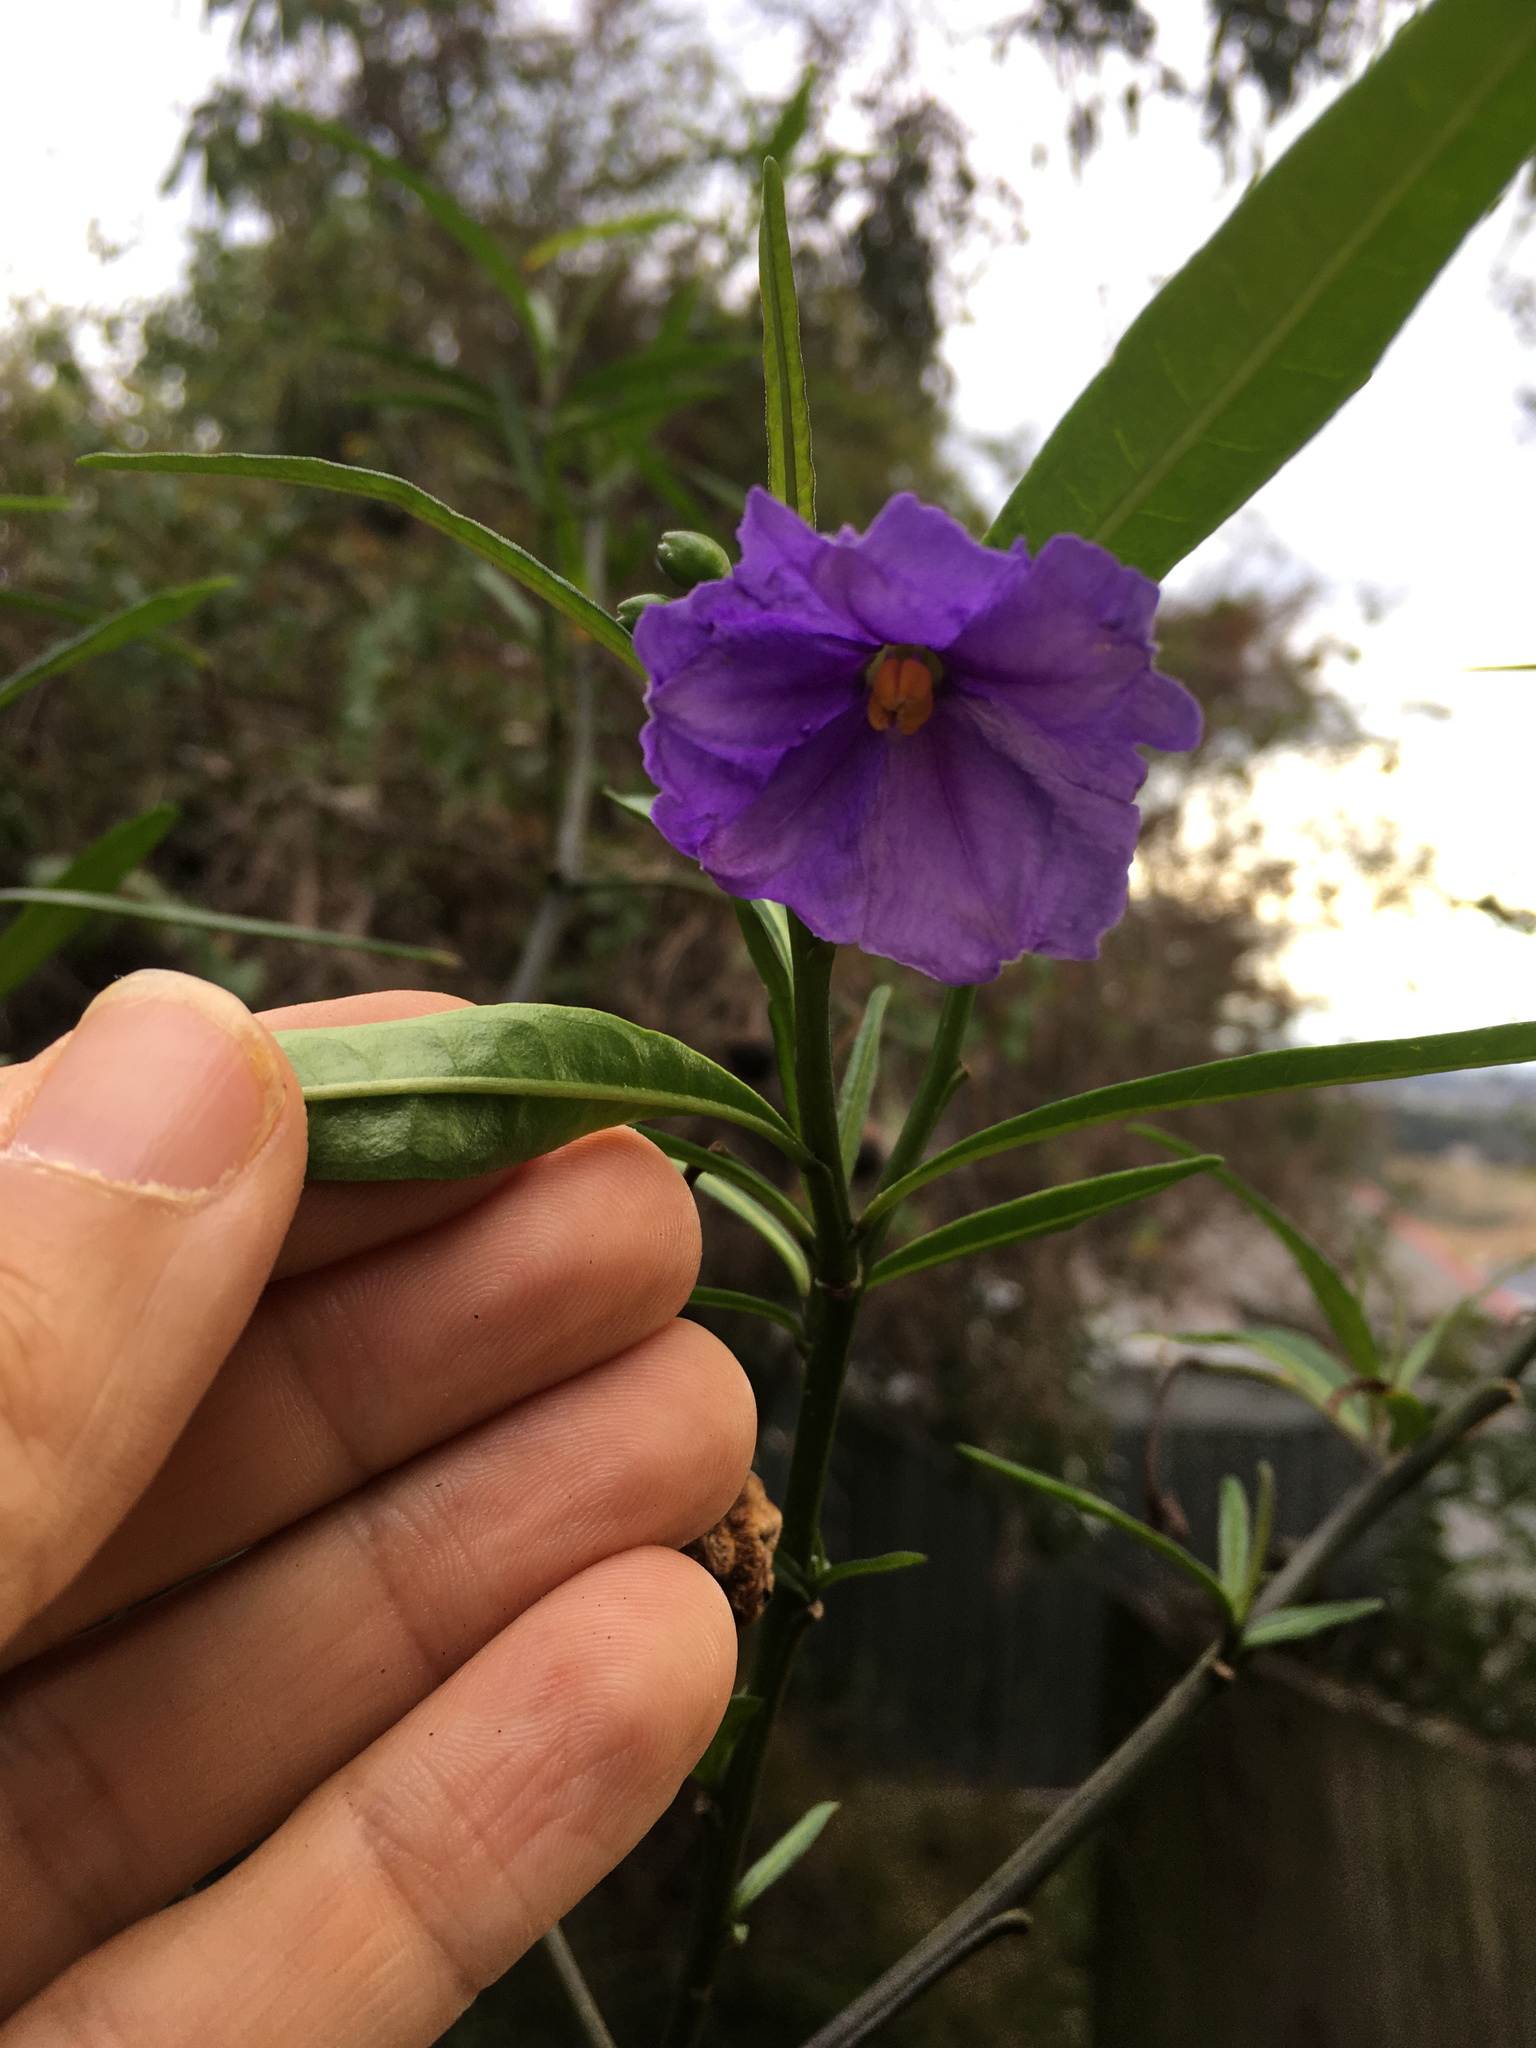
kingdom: Plantae
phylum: Tracheophyta
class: Magnoliopsida
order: Solanales
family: Solanaceae
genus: Solanum
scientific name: Solanum laciniatum
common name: Kangaroo-apple
